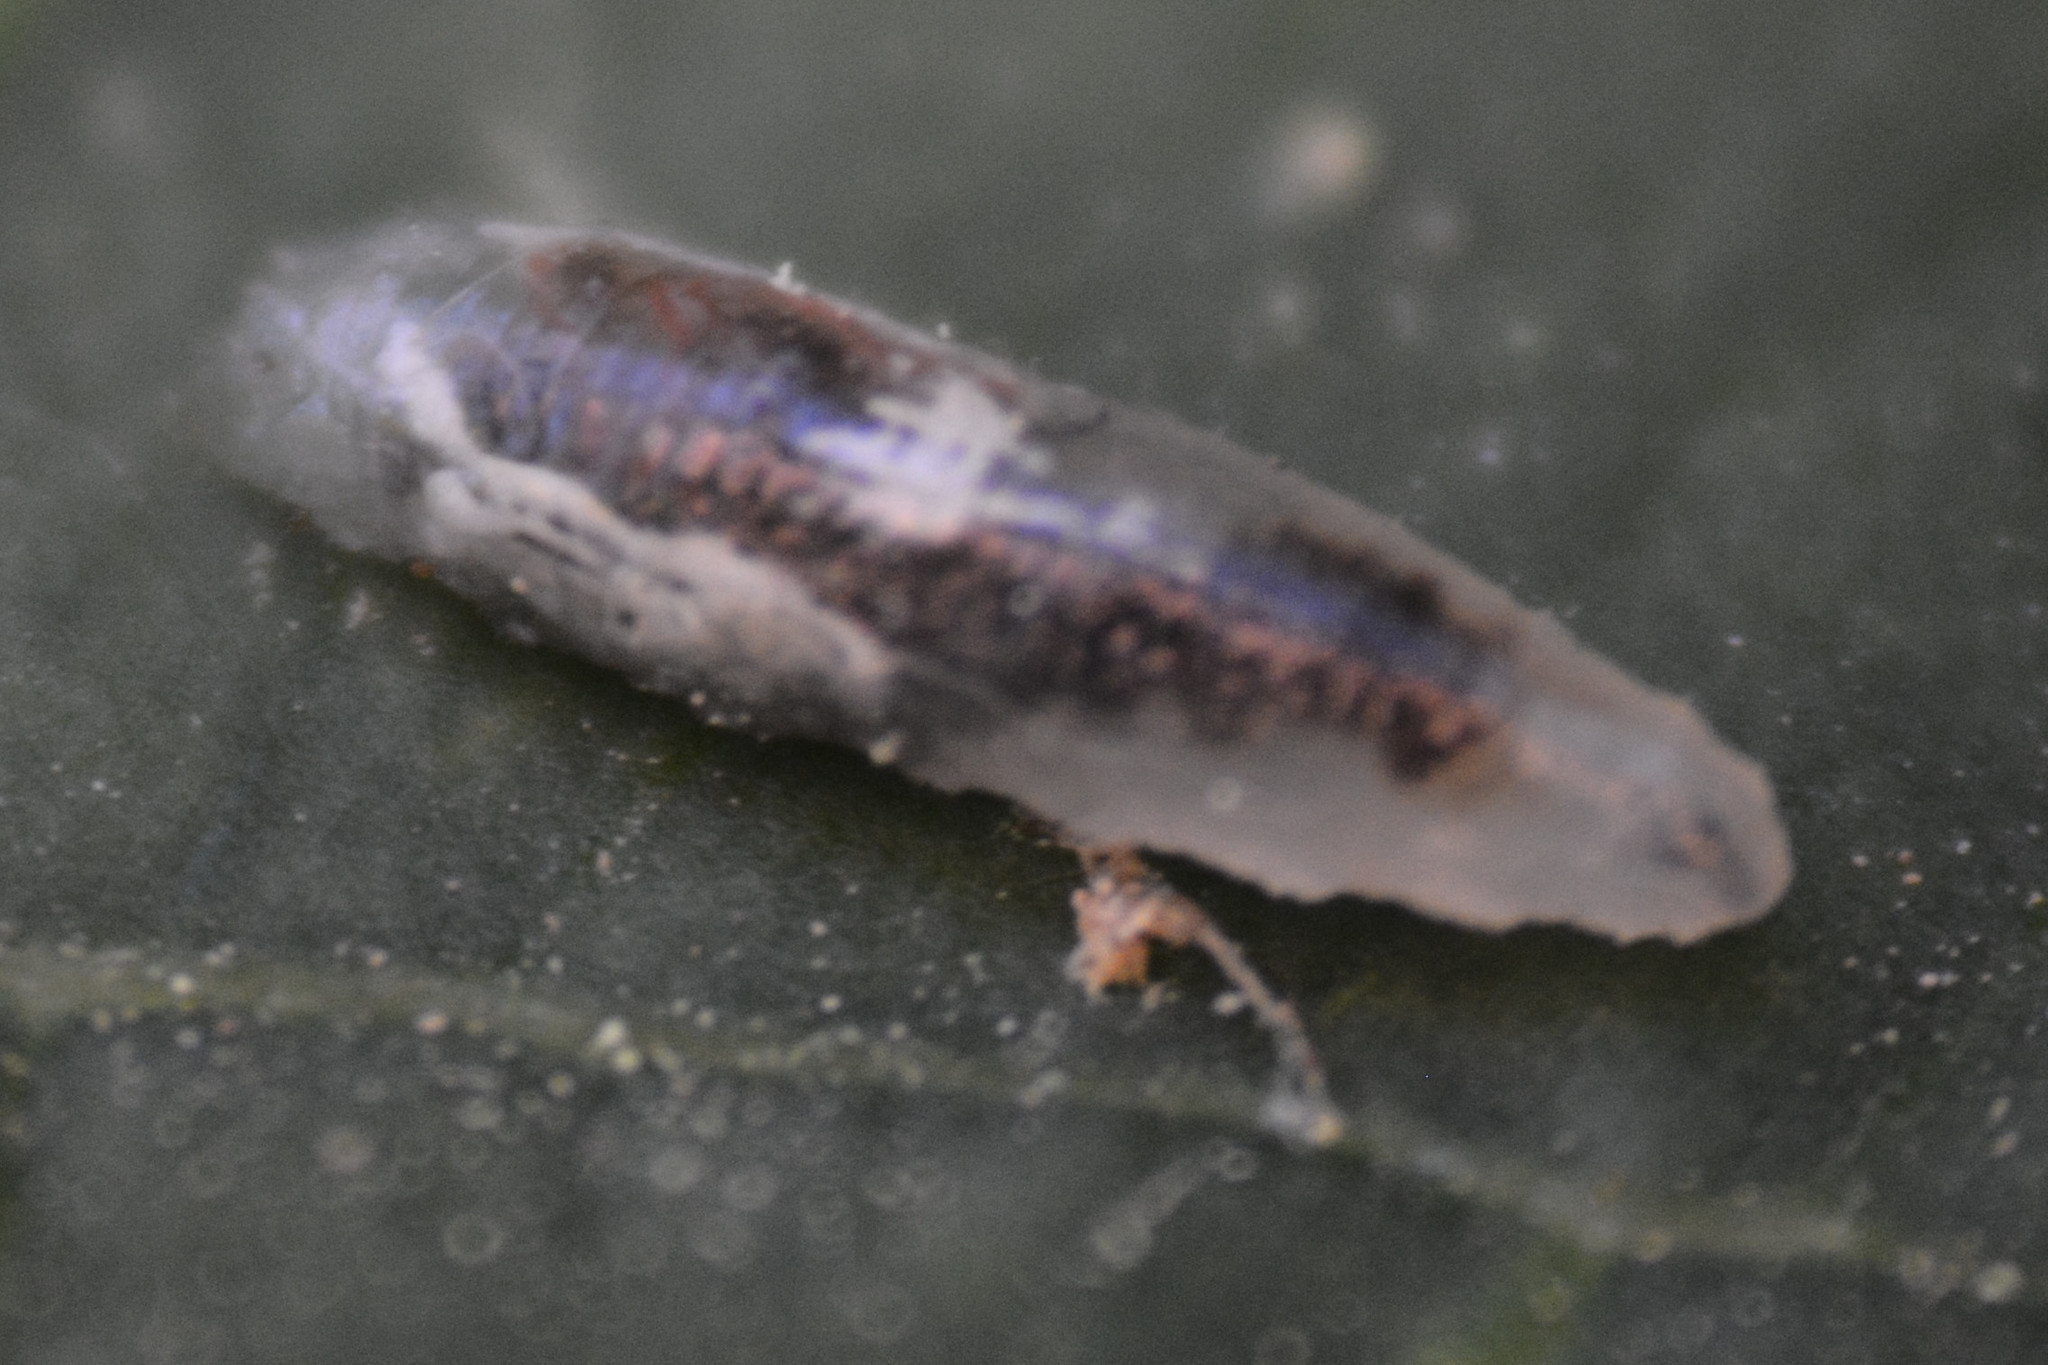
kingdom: Animalia
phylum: Arthropoda
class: Insecta
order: Diptera
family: Syrphidae
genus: Episyrphus
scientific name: Episyrphus balteatus
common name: Marmalade hoverfly
